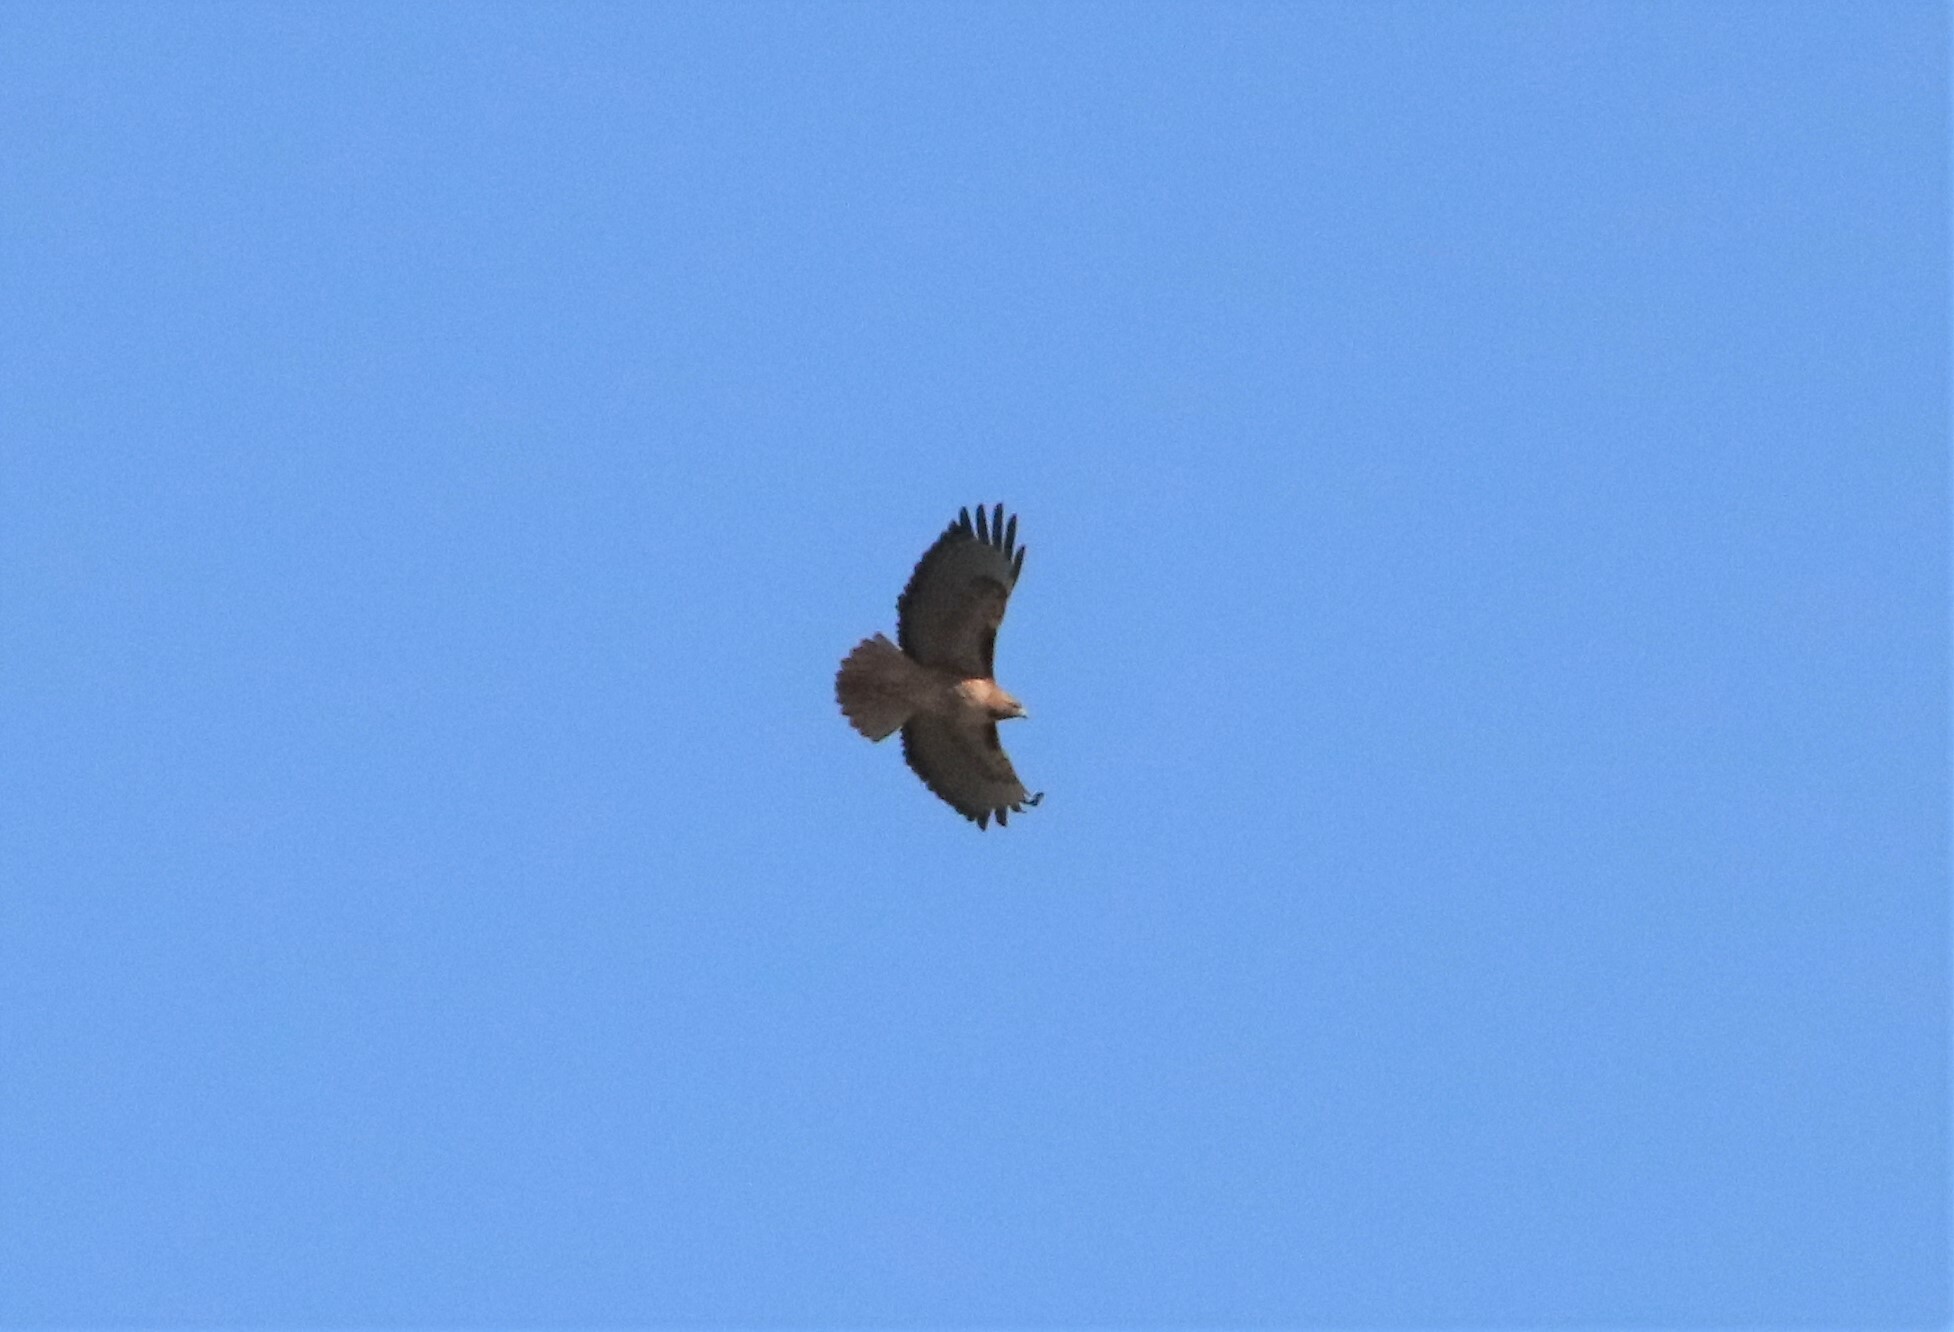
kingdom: Animalia
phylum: Chordata
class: Aves
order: Accipitriformes
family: Accipitridae
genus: Buteo
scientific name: Buteo jamaicensis
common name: Red-tailed hawk
